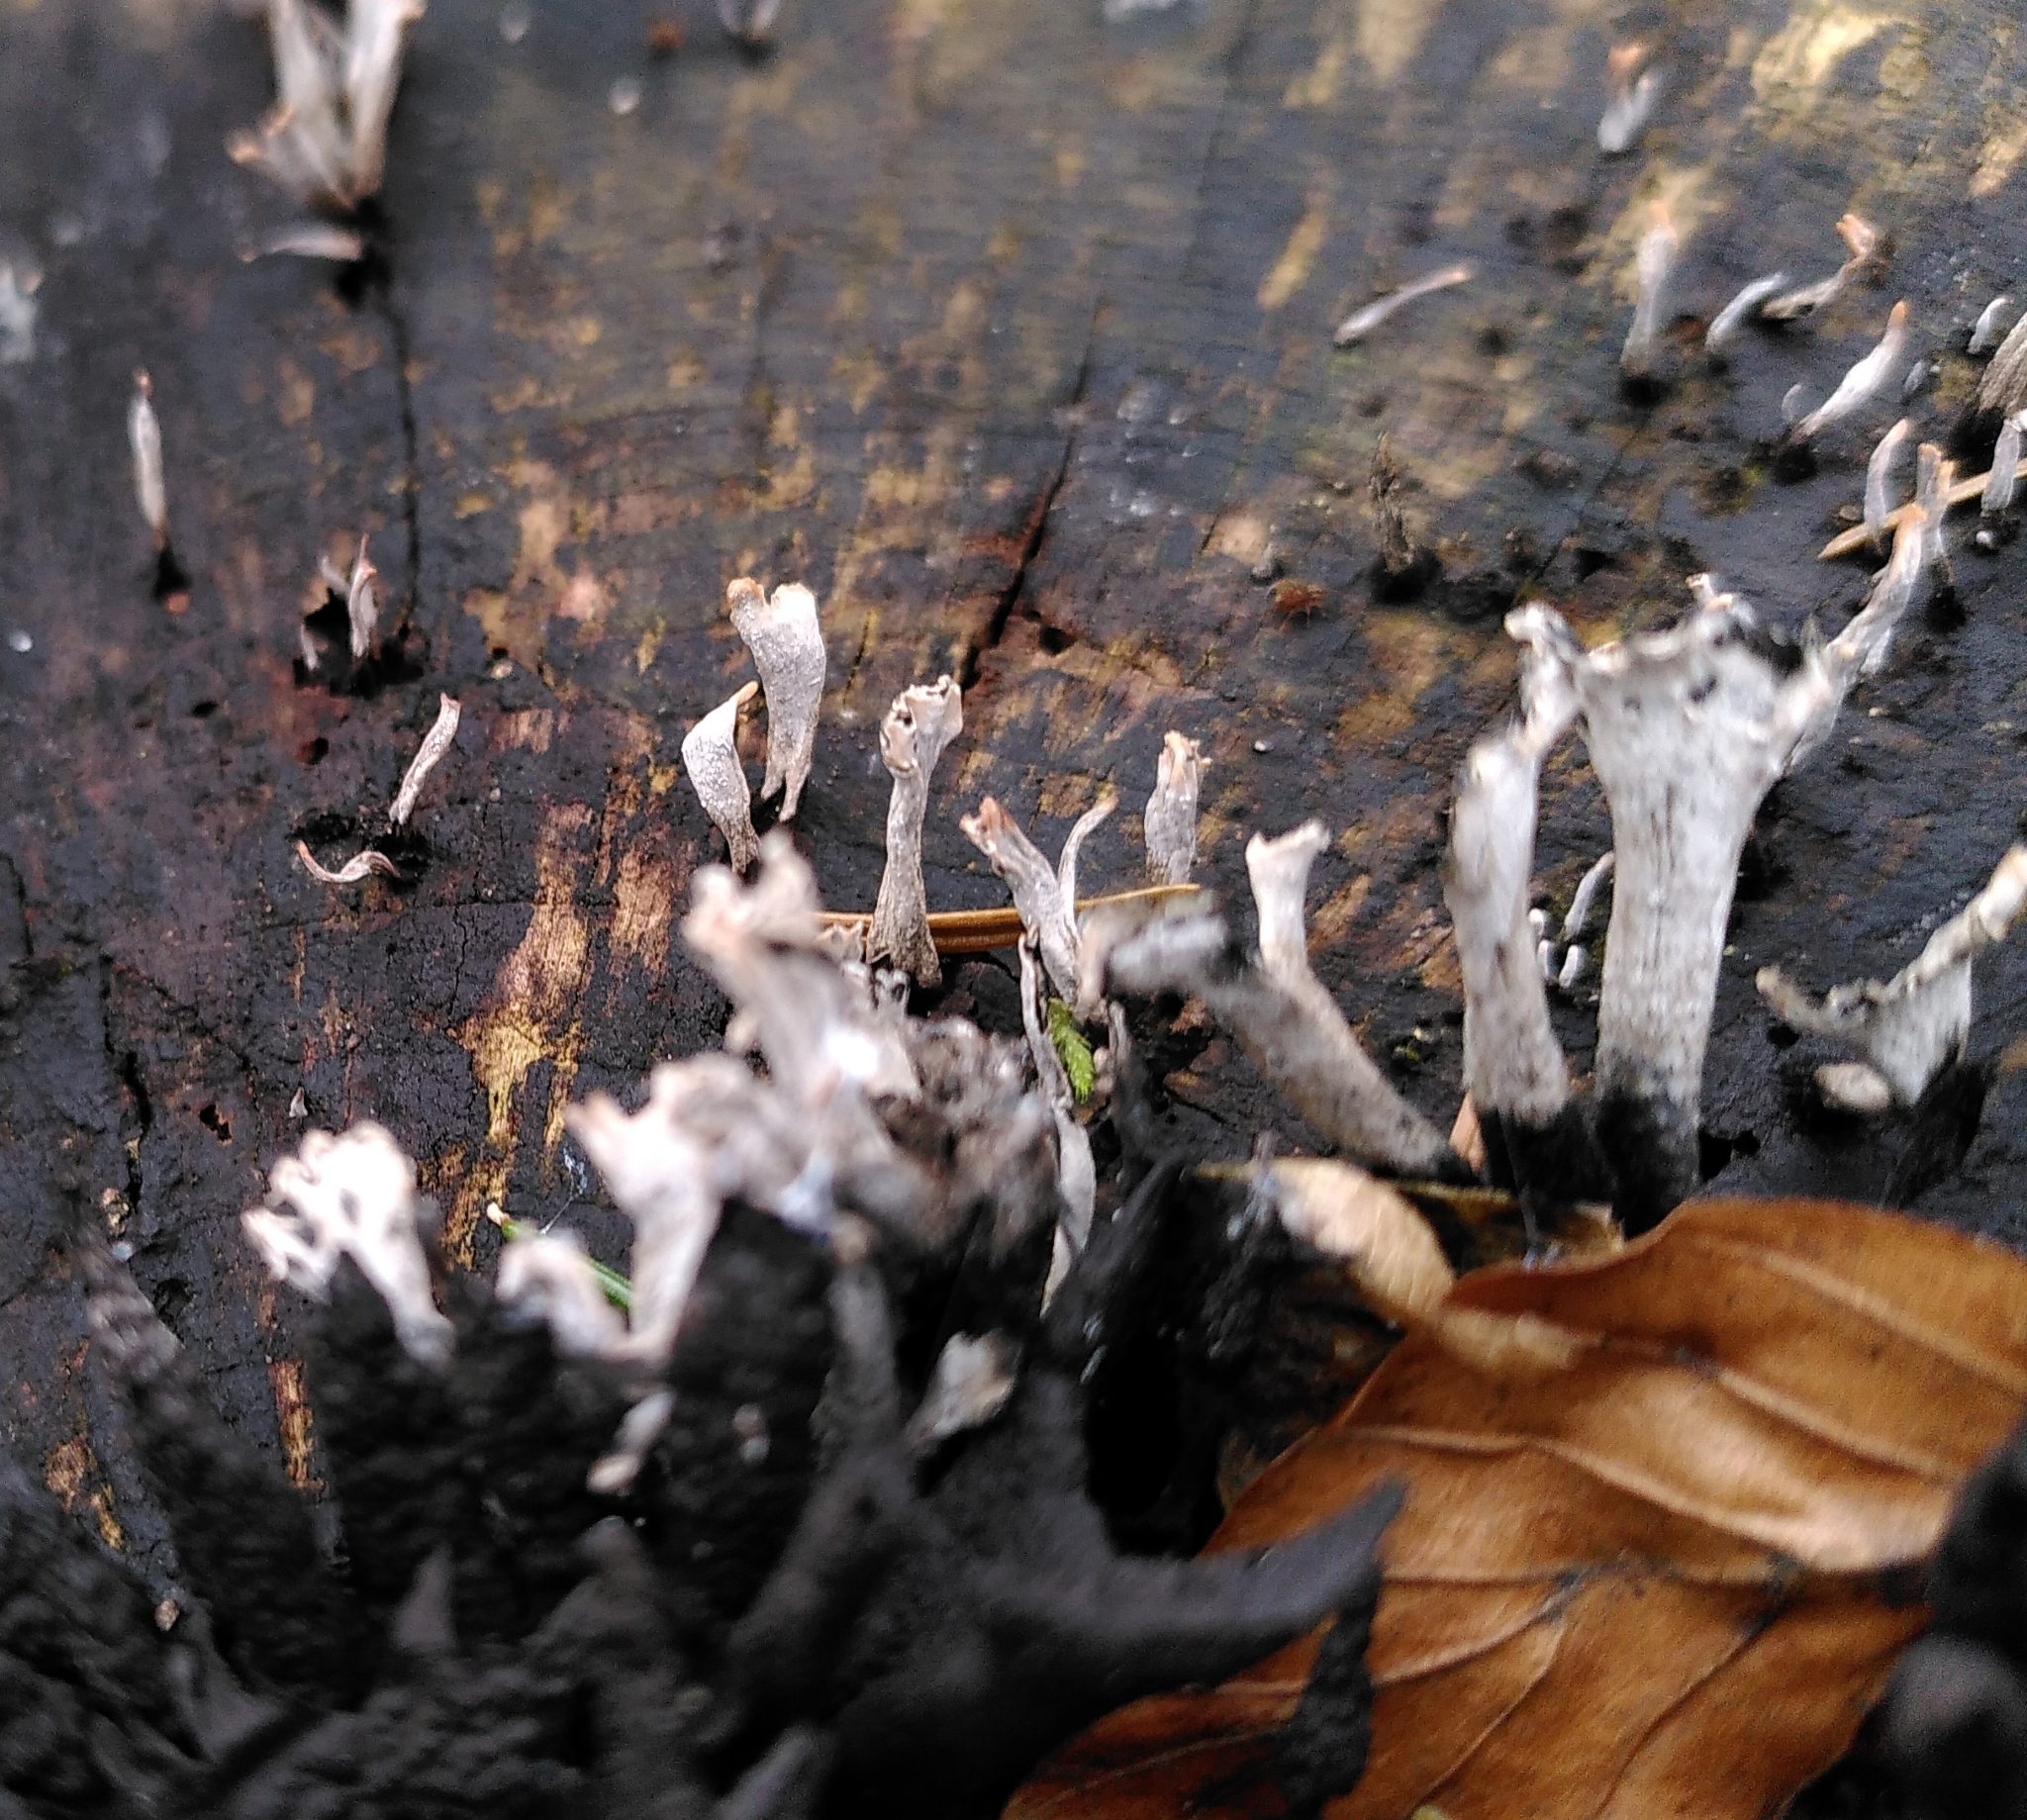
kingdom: Fungi
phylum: Ascomycota
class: Sordariomycetes
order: Xylariales
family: Xylariaceae
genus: Xylaria
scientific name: Xylaria hypoxylon
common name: Candle-snuff fungus
